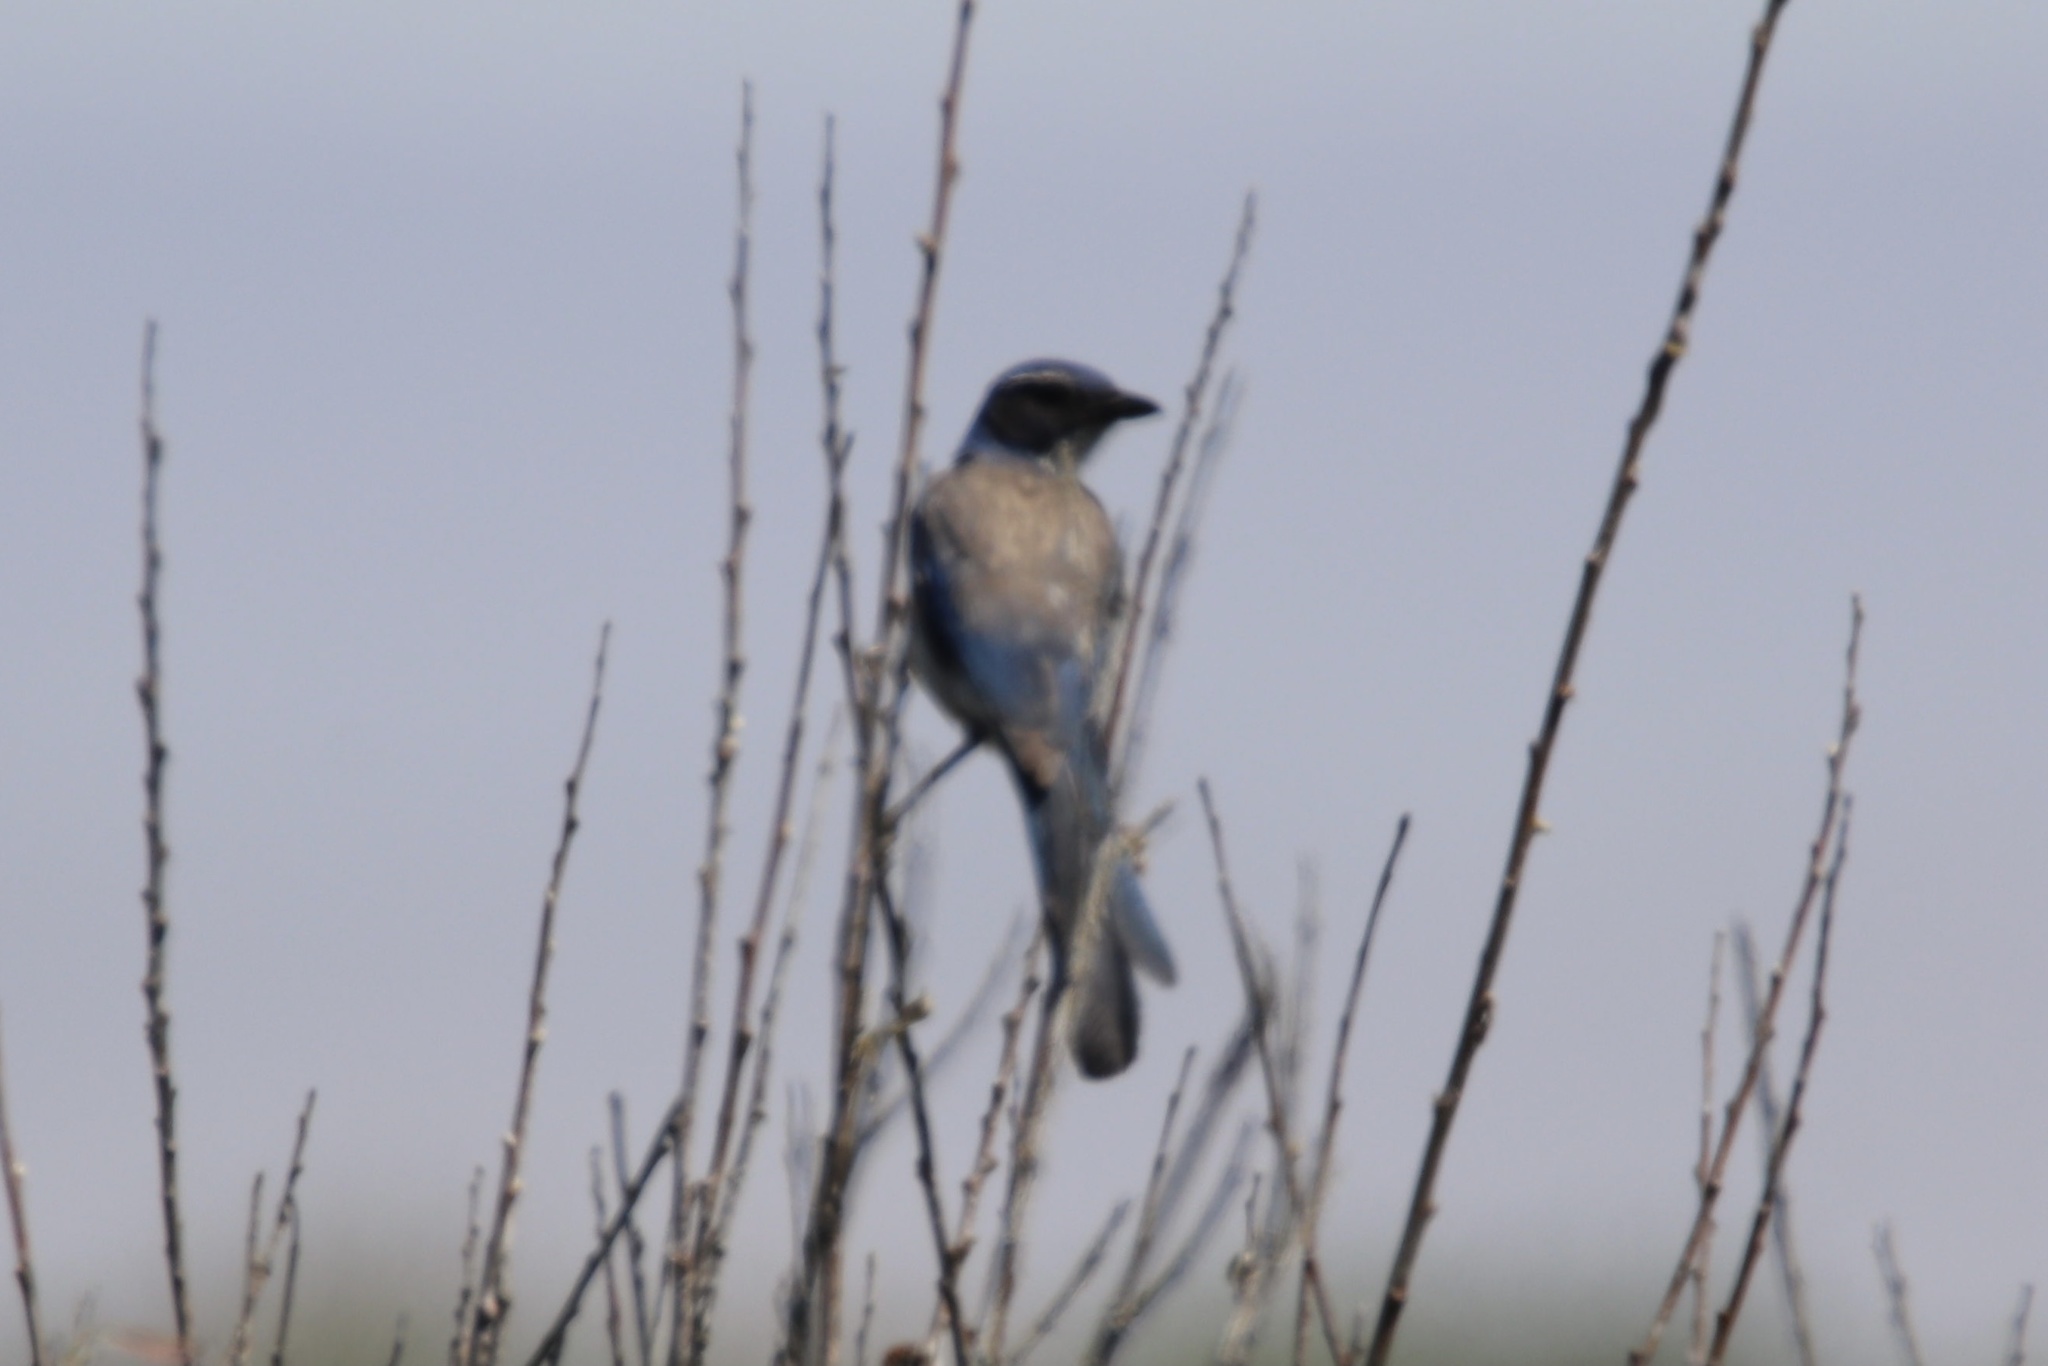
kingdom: Animalia
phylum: Chordata
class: Aves
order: Passeriformes
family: Corvidae
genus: Aphelocoma
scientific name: Aphelocoma californica
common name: California scrub-jay
